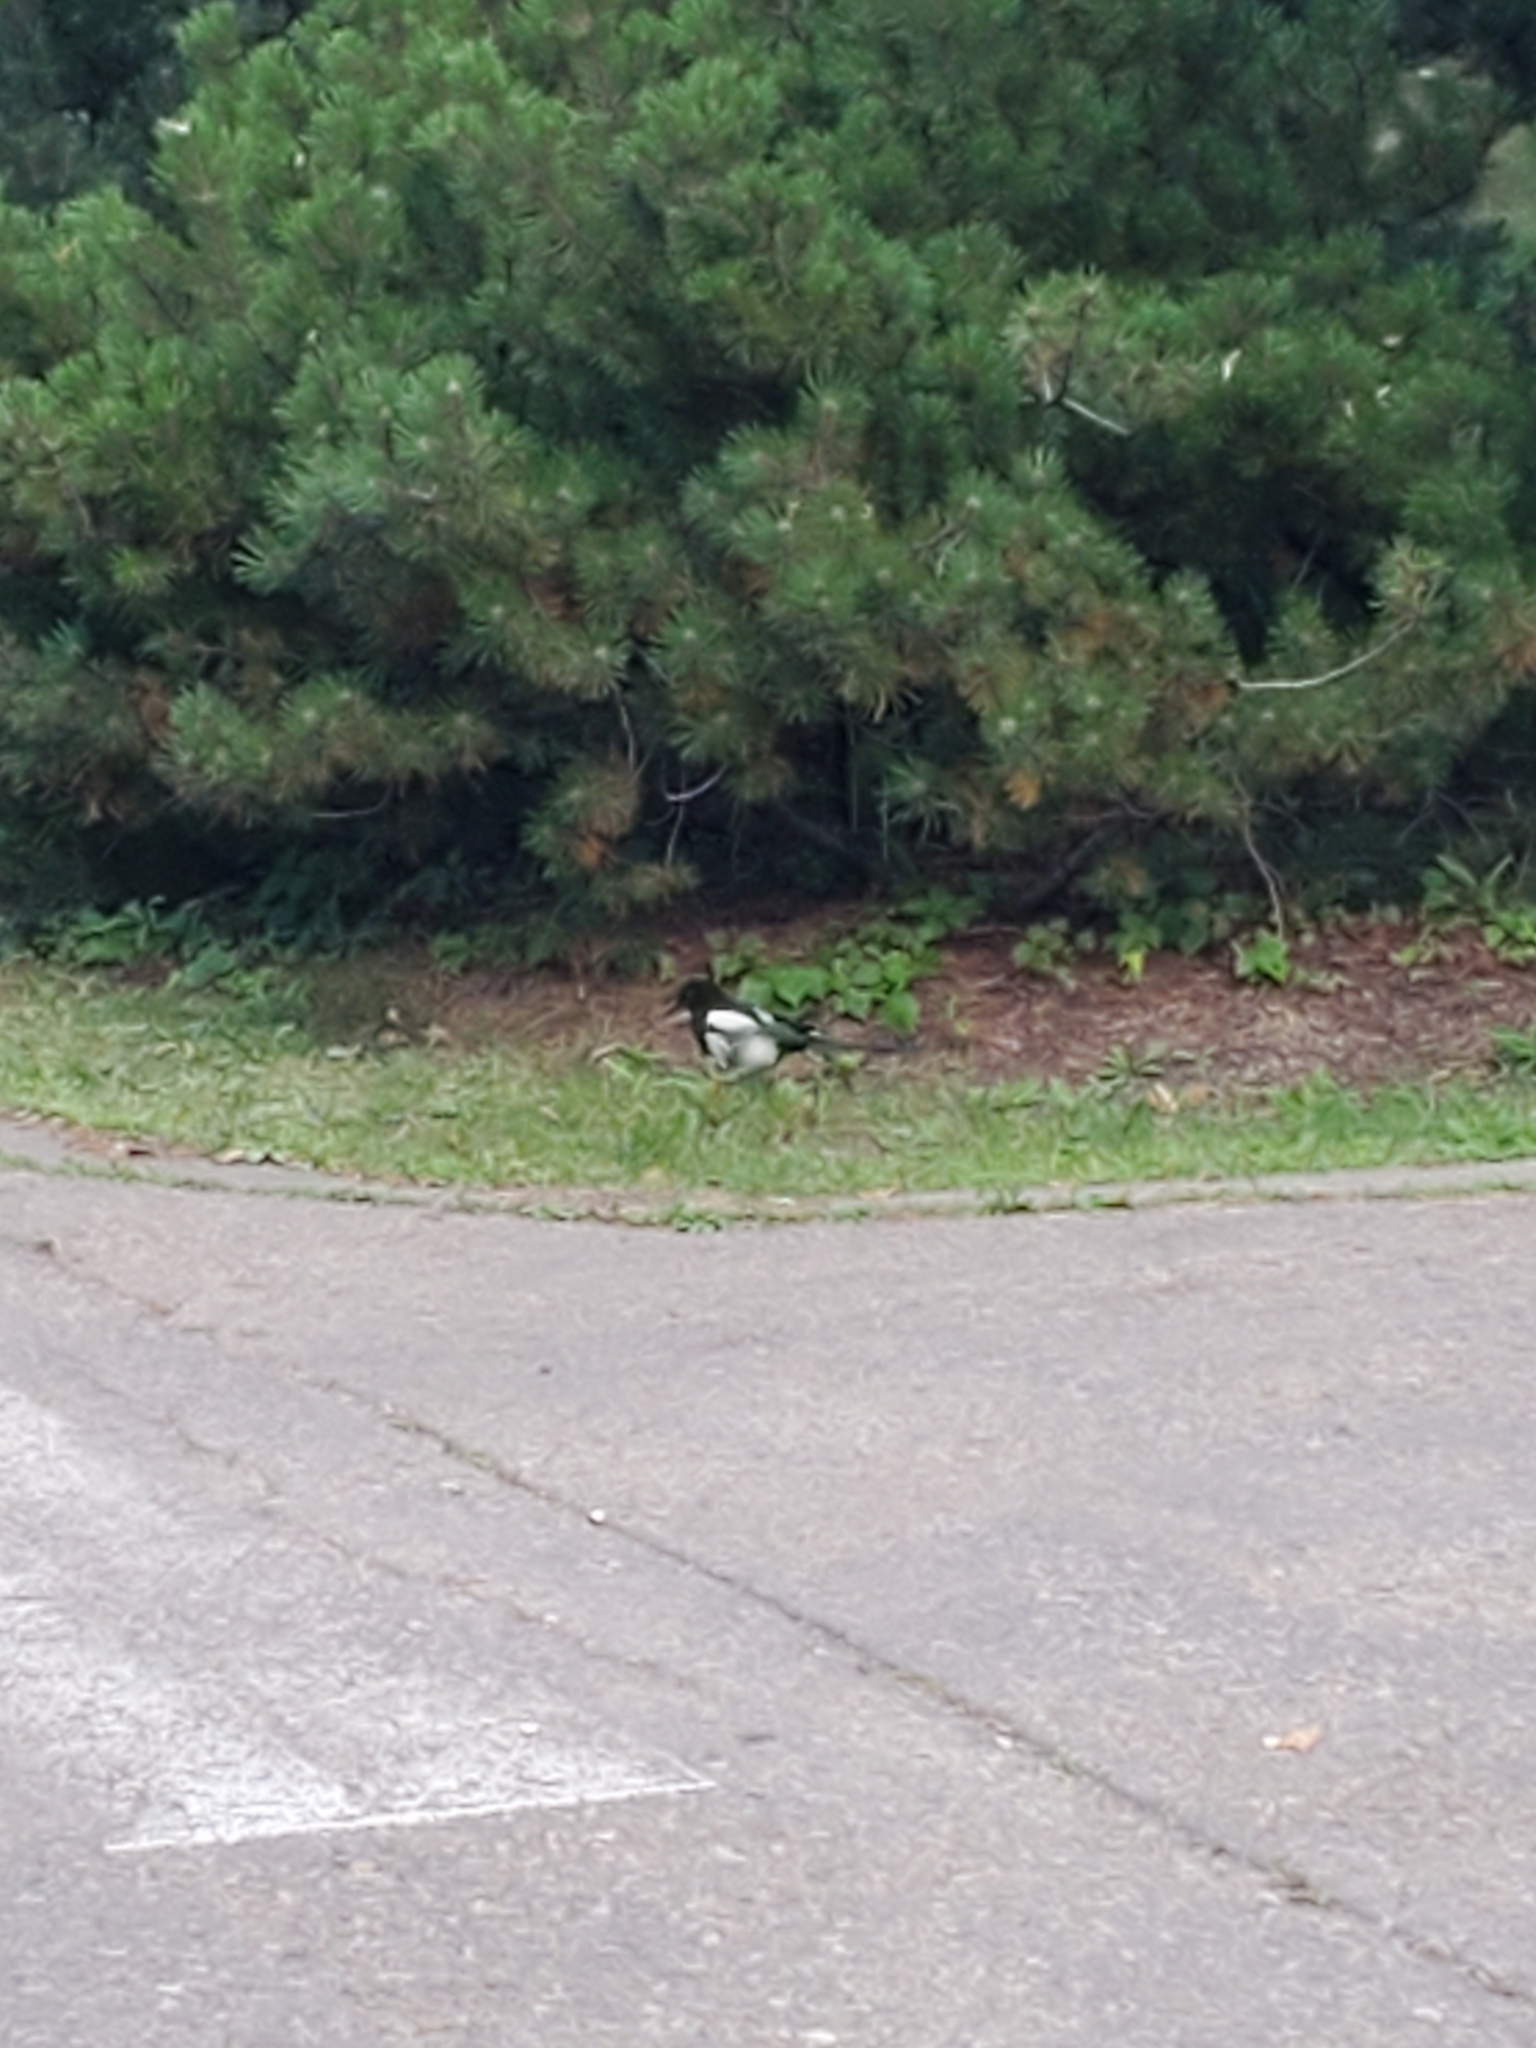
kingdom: Animalia
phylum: Chordata
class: Aves
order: Passeriformes
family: Corvidae
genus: Pica
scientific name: Pica hudsonia
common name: Black-billed magpie
